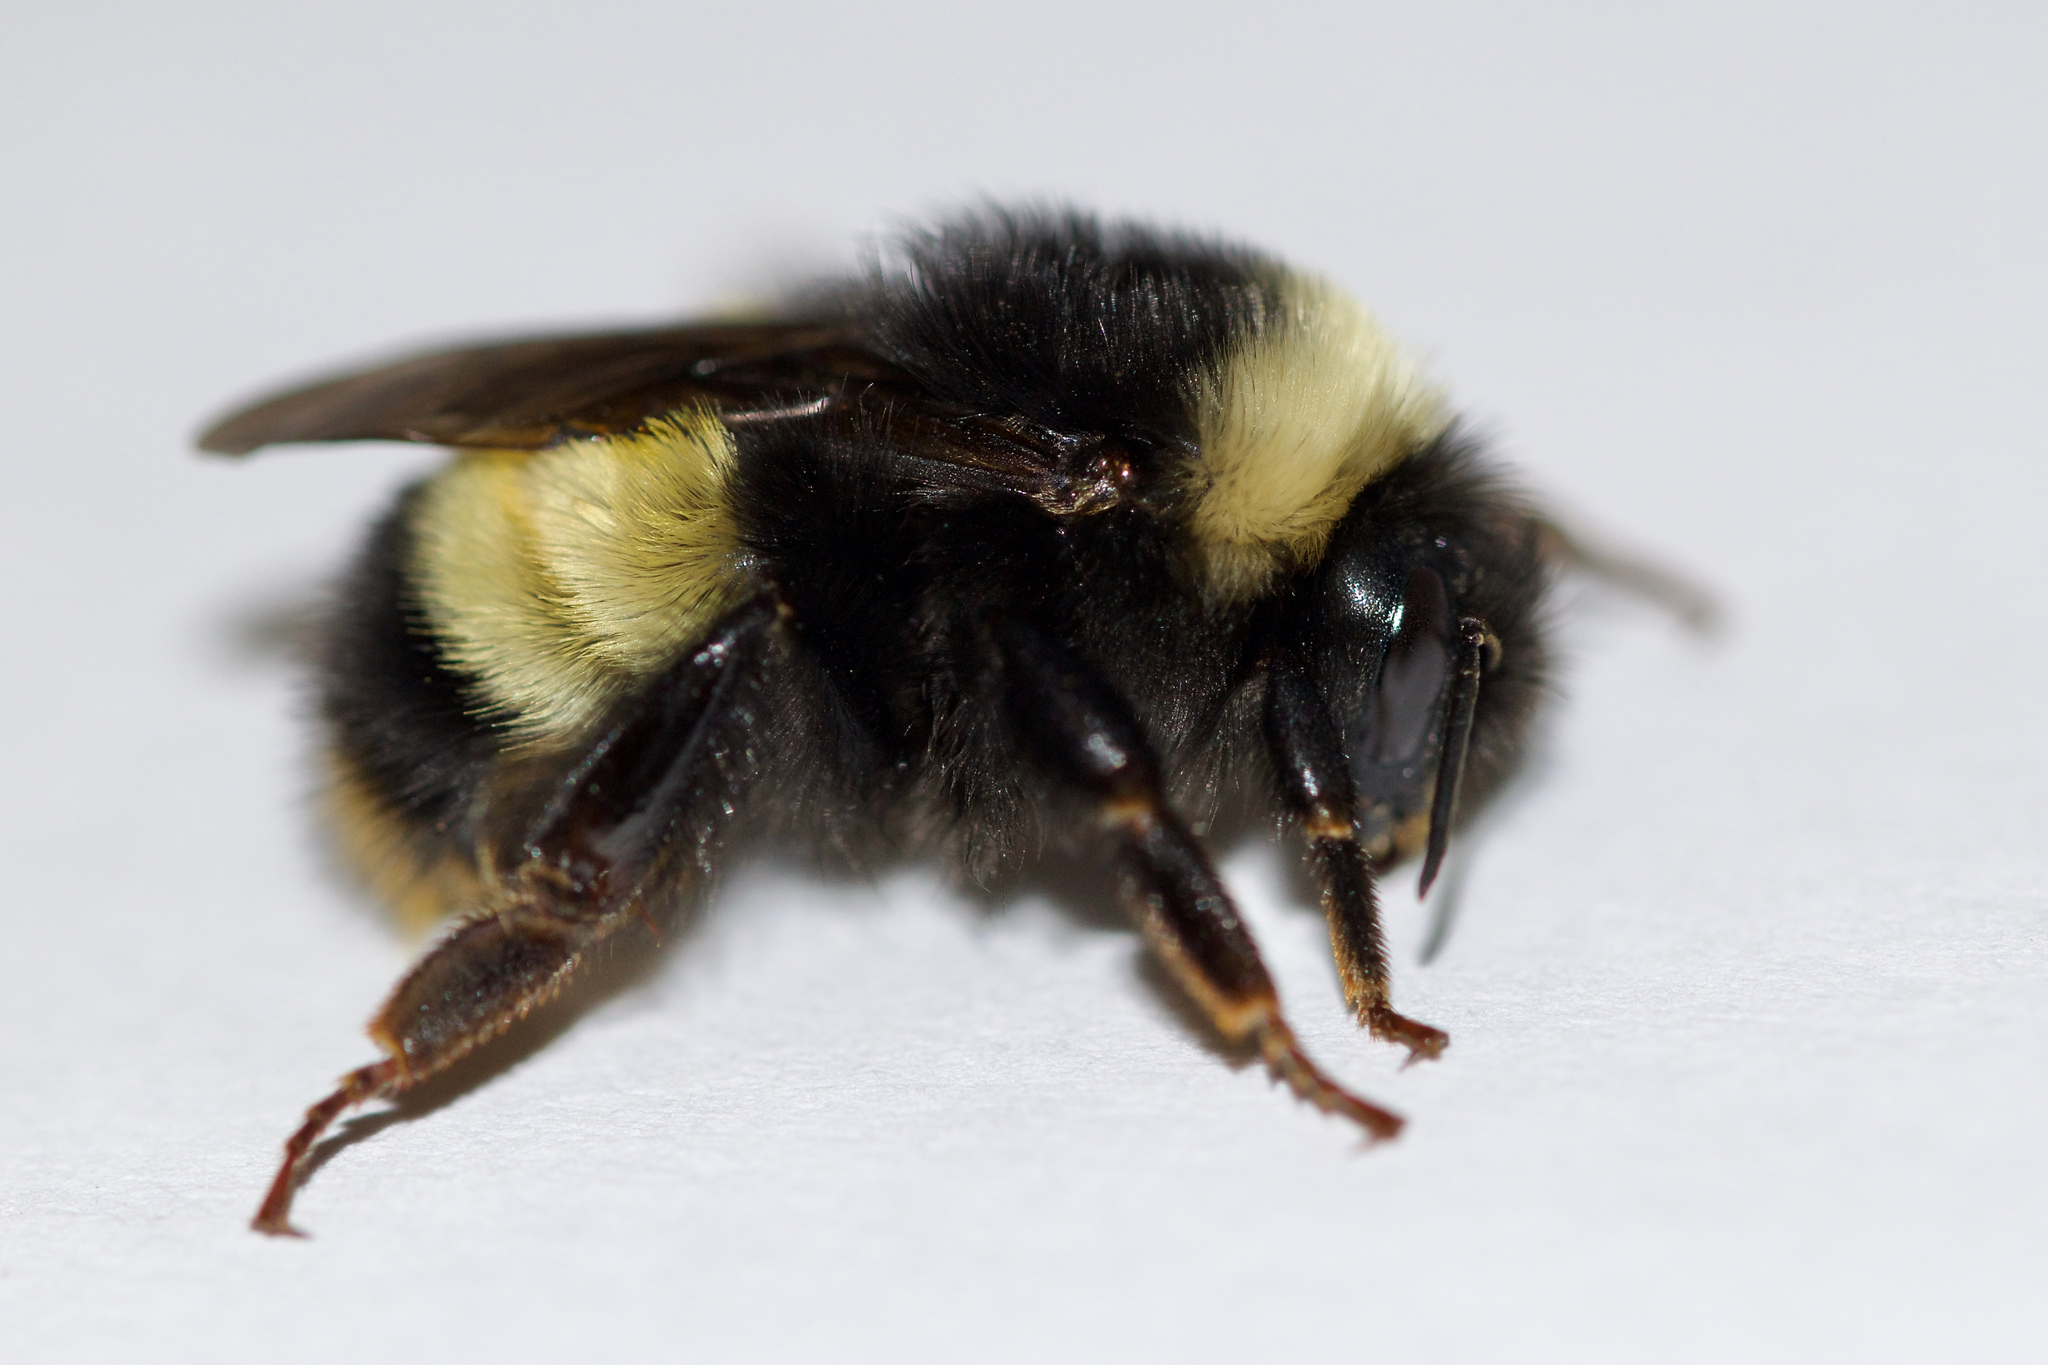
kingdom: Animalia
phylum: Arthropoda
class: Insecta
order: Hymenoptera
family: Apidae
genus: Bombus
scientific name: Bombus terricola
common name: Yellow-banded bumble bee
